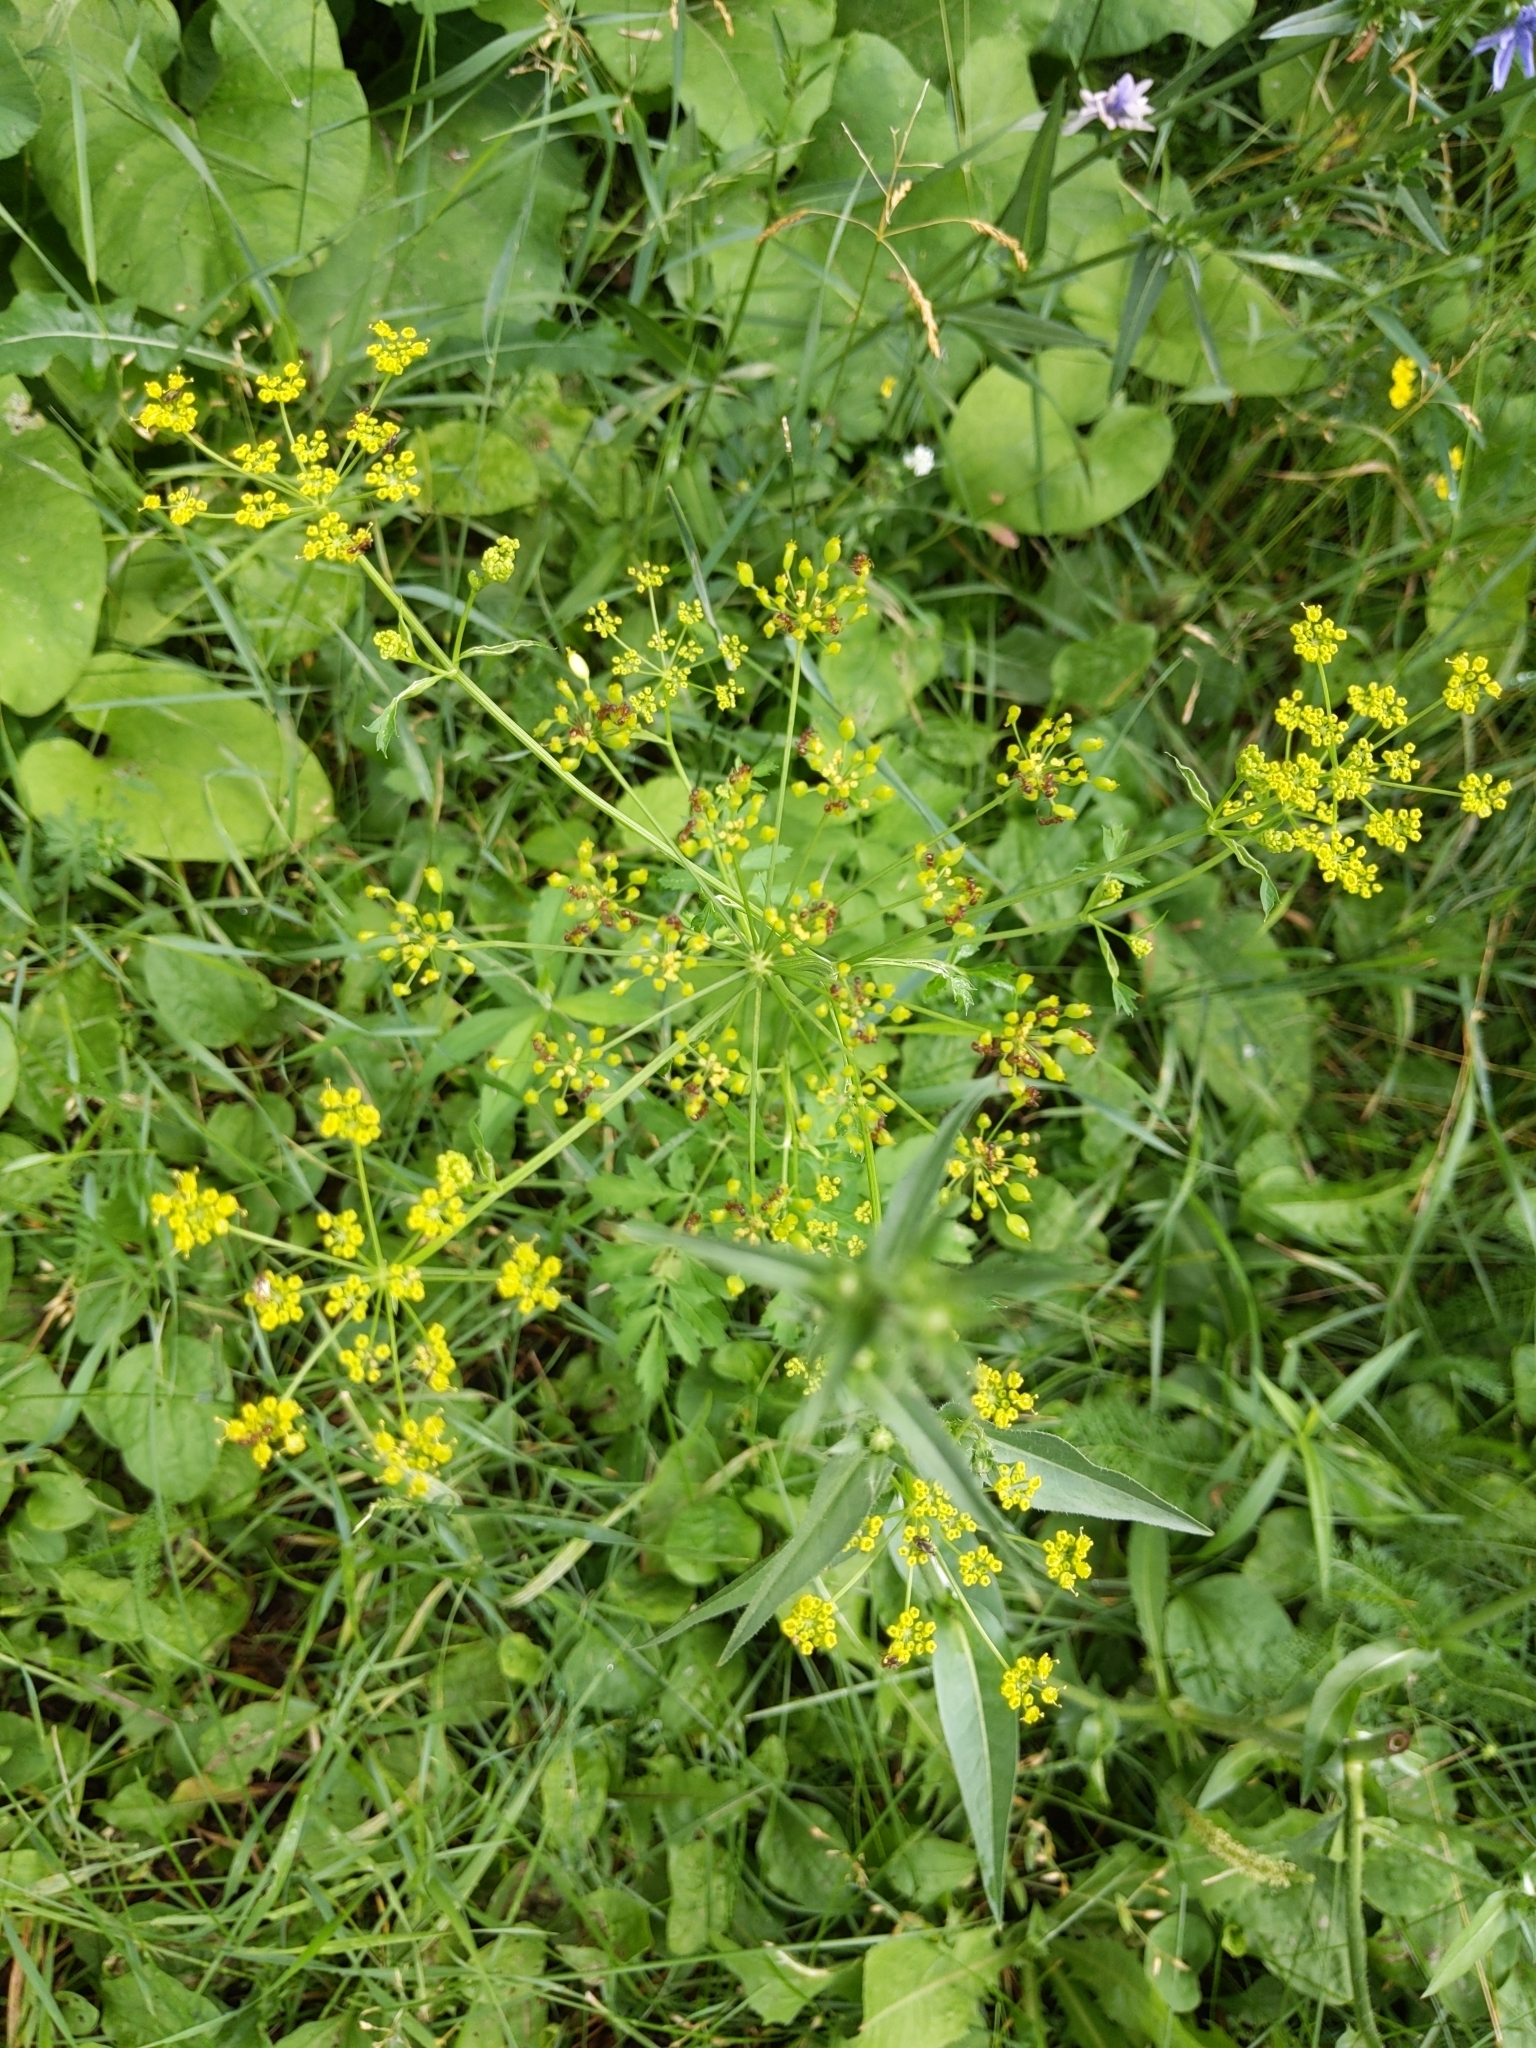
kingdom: Plantae
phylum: Tracheophyta
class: Magnoliopsida
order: Apiales
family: Apiaceae
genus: Pastinaca
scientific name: Pastinaca sativa
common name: Wild parsnip
